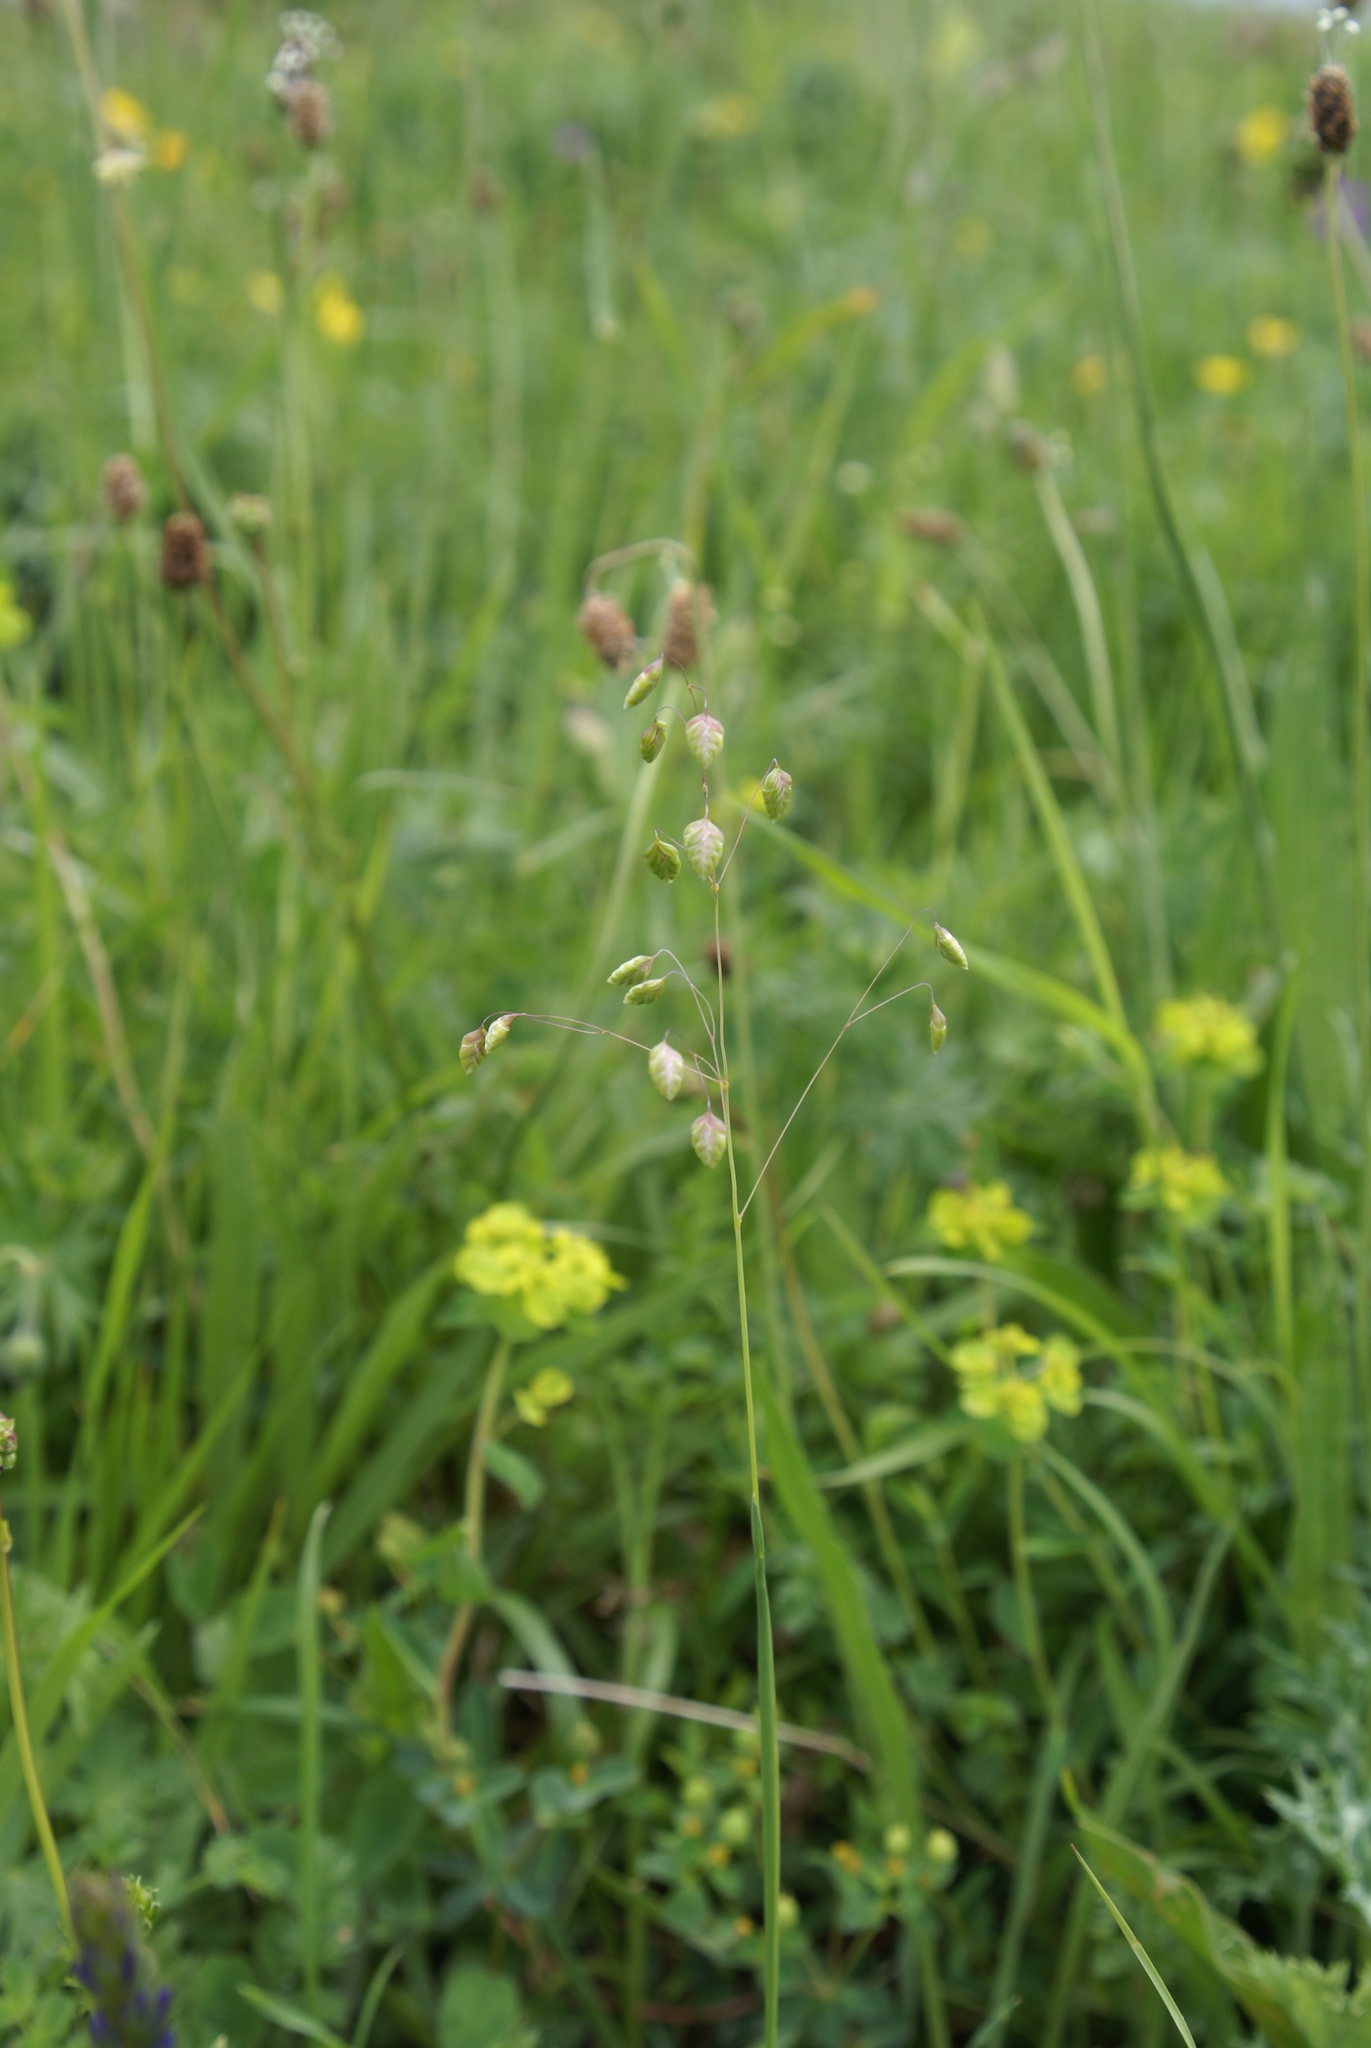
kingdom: Plantae
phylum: Tracheophyta
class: Liliopsida
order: Poales
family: Poaceae
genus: Briza
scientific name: Briza media
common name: Quaking grass
